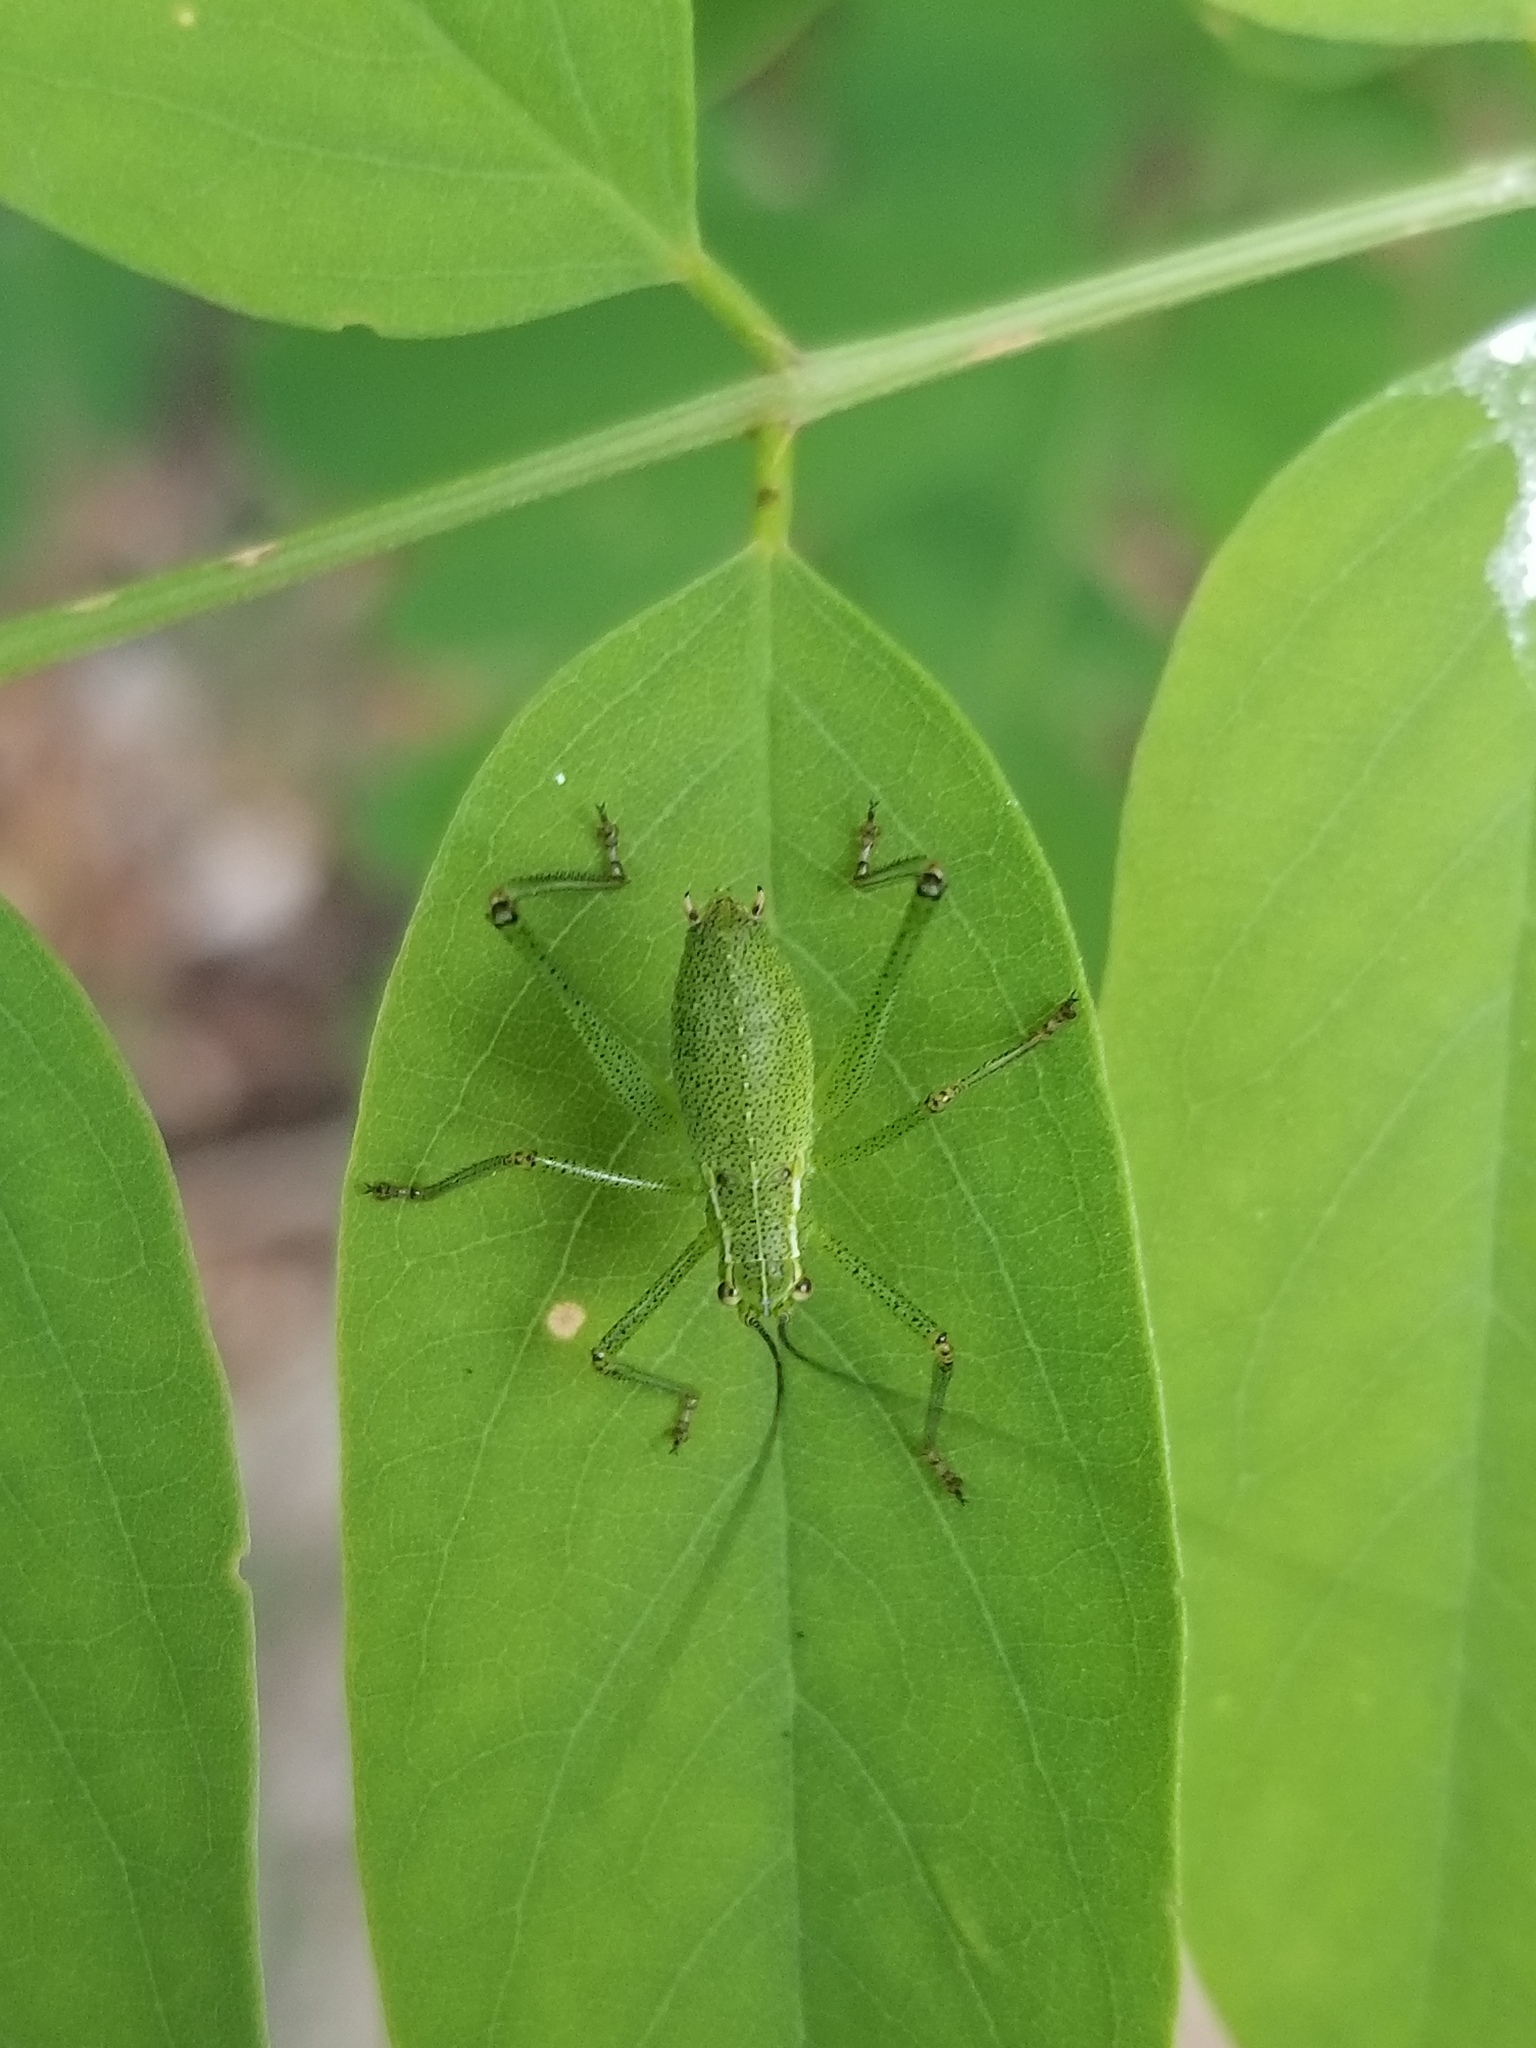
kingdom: Animalia
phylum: Arthropoda
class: Insecta
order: Orthoptera
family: Tettigoniidae
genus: Leptophyes
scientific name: Leptophyes punctatissima
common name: Speckled bush-cricket
